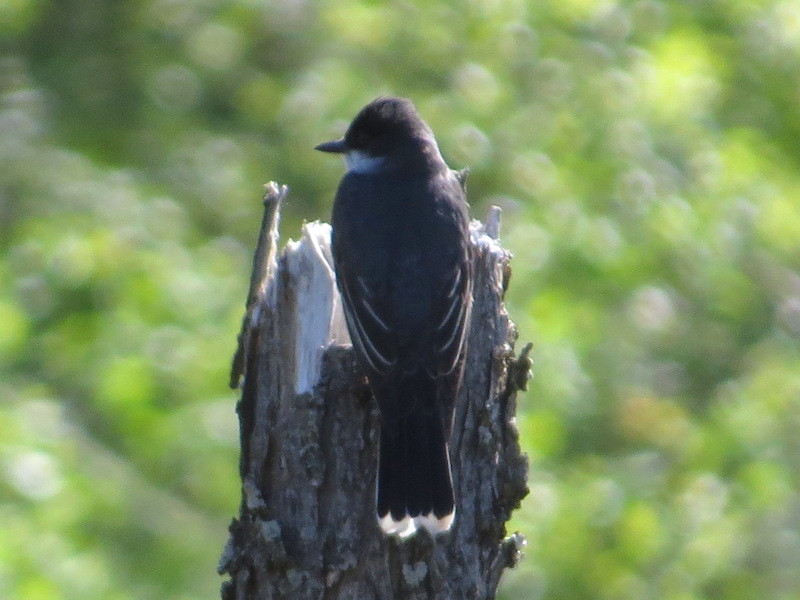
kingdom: Animalia
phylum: Chordata
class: Aves
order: Passeriformes
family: Tyrannidae
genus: Tyrannus
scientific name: Tyrannus tyrannus
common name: Eastern kingbird
